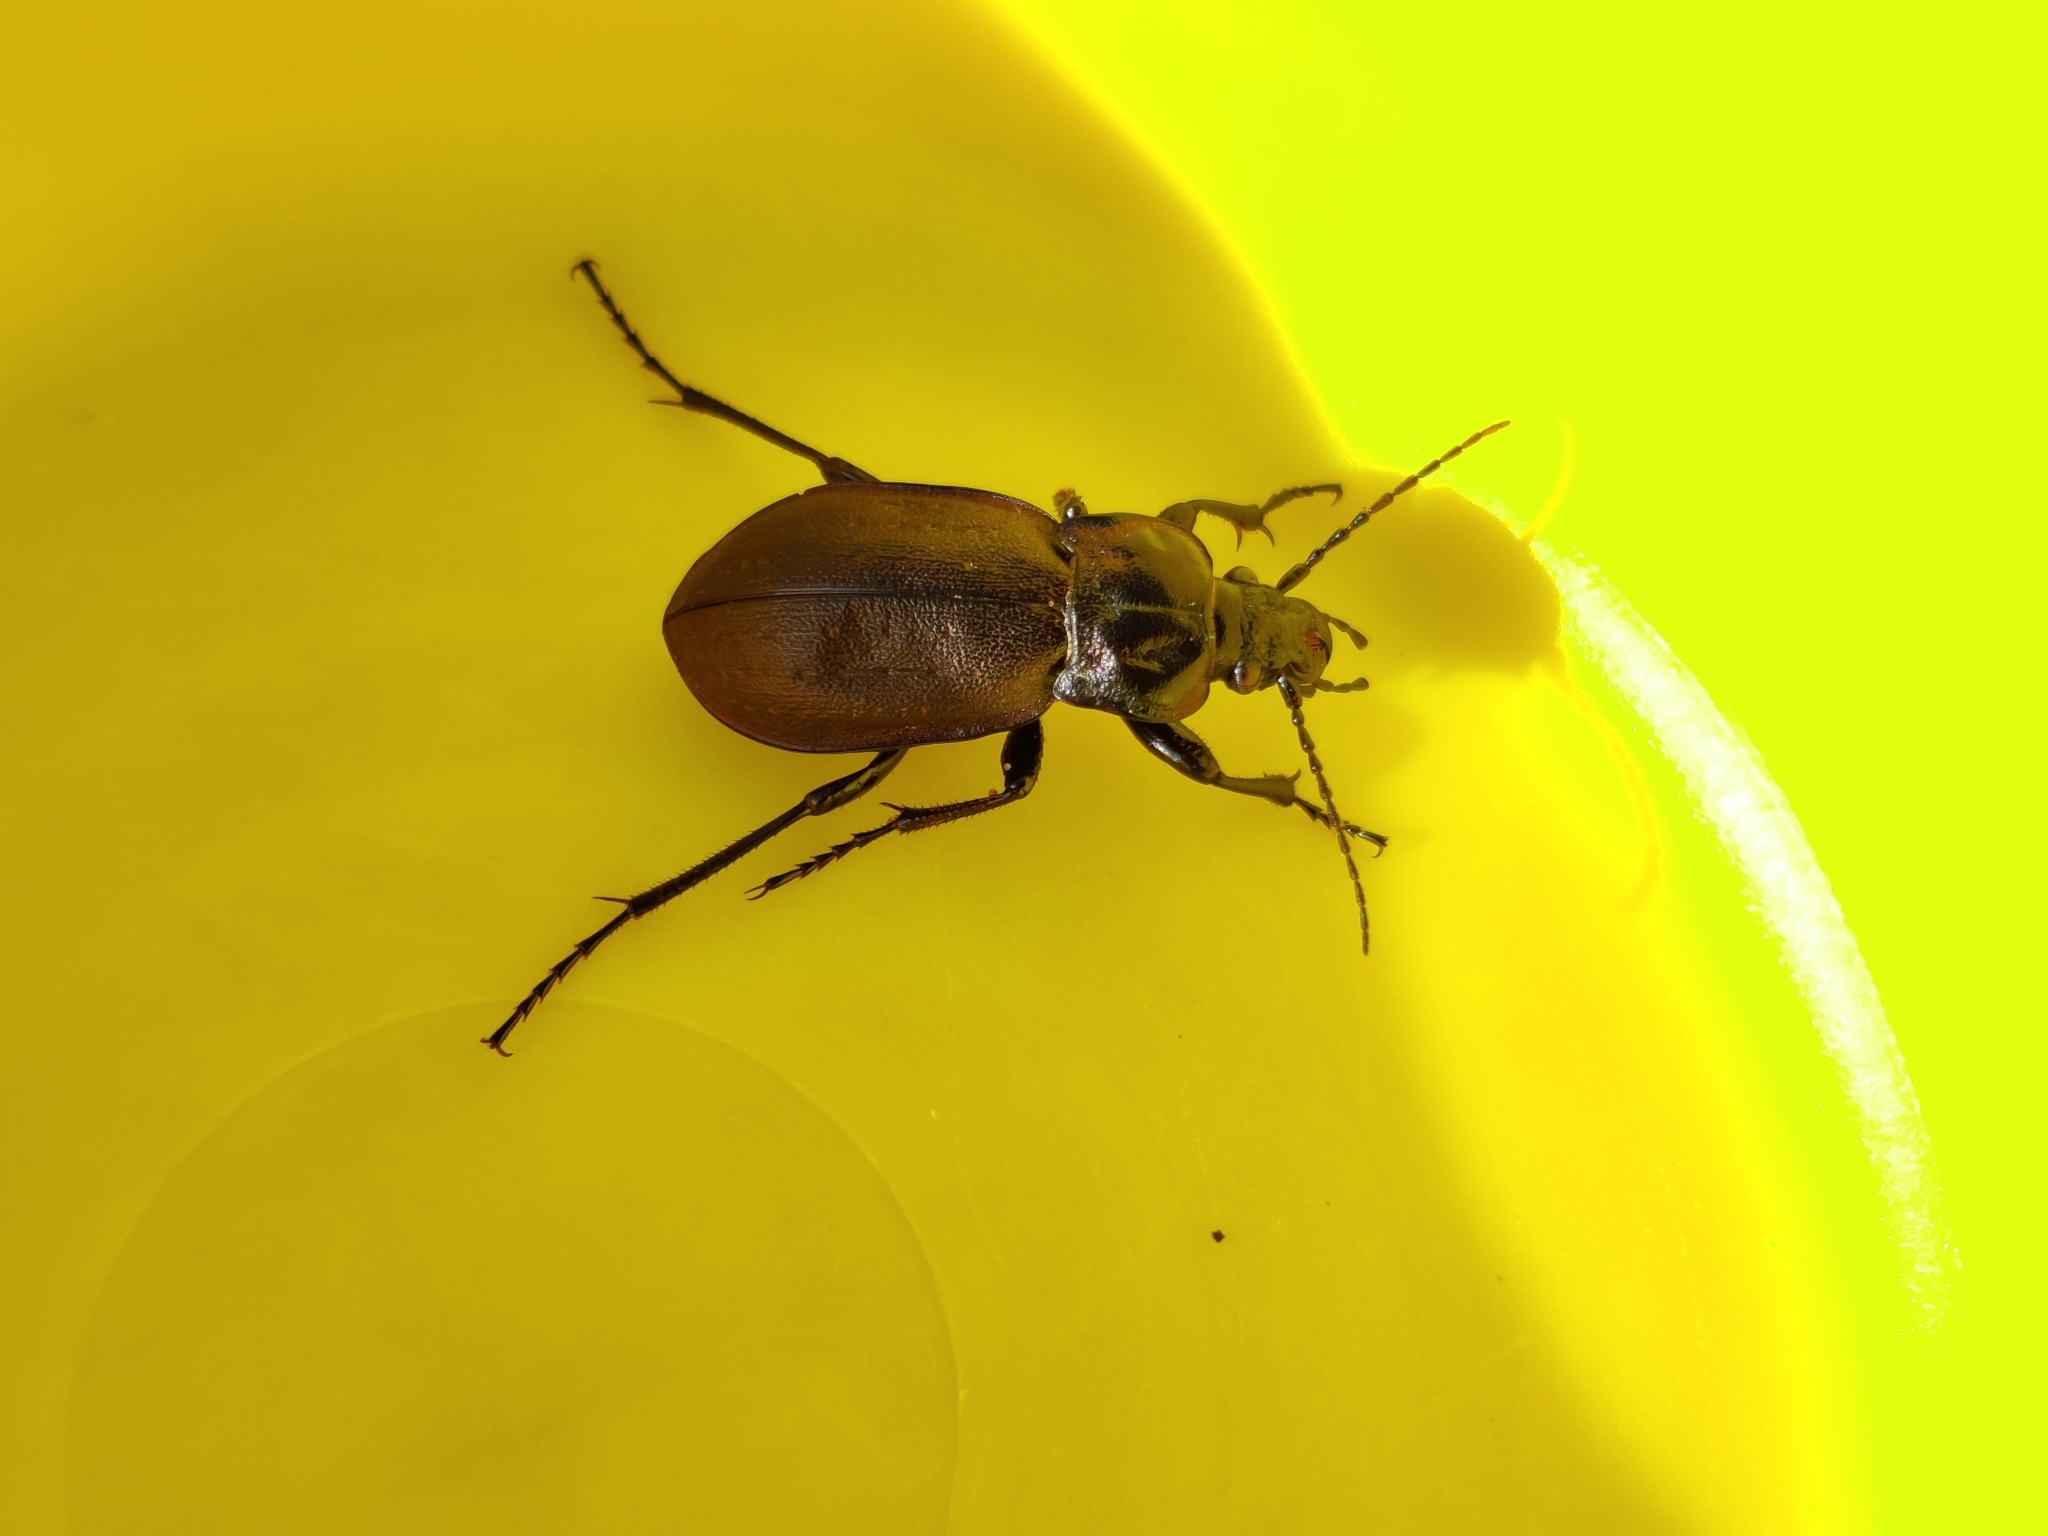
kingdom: Animalia
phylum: Arthropoda
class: Insecta
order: Coleoptera
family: Carabidae
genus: Carabus
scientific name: Carabus nemoralis
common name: European ground beetle
